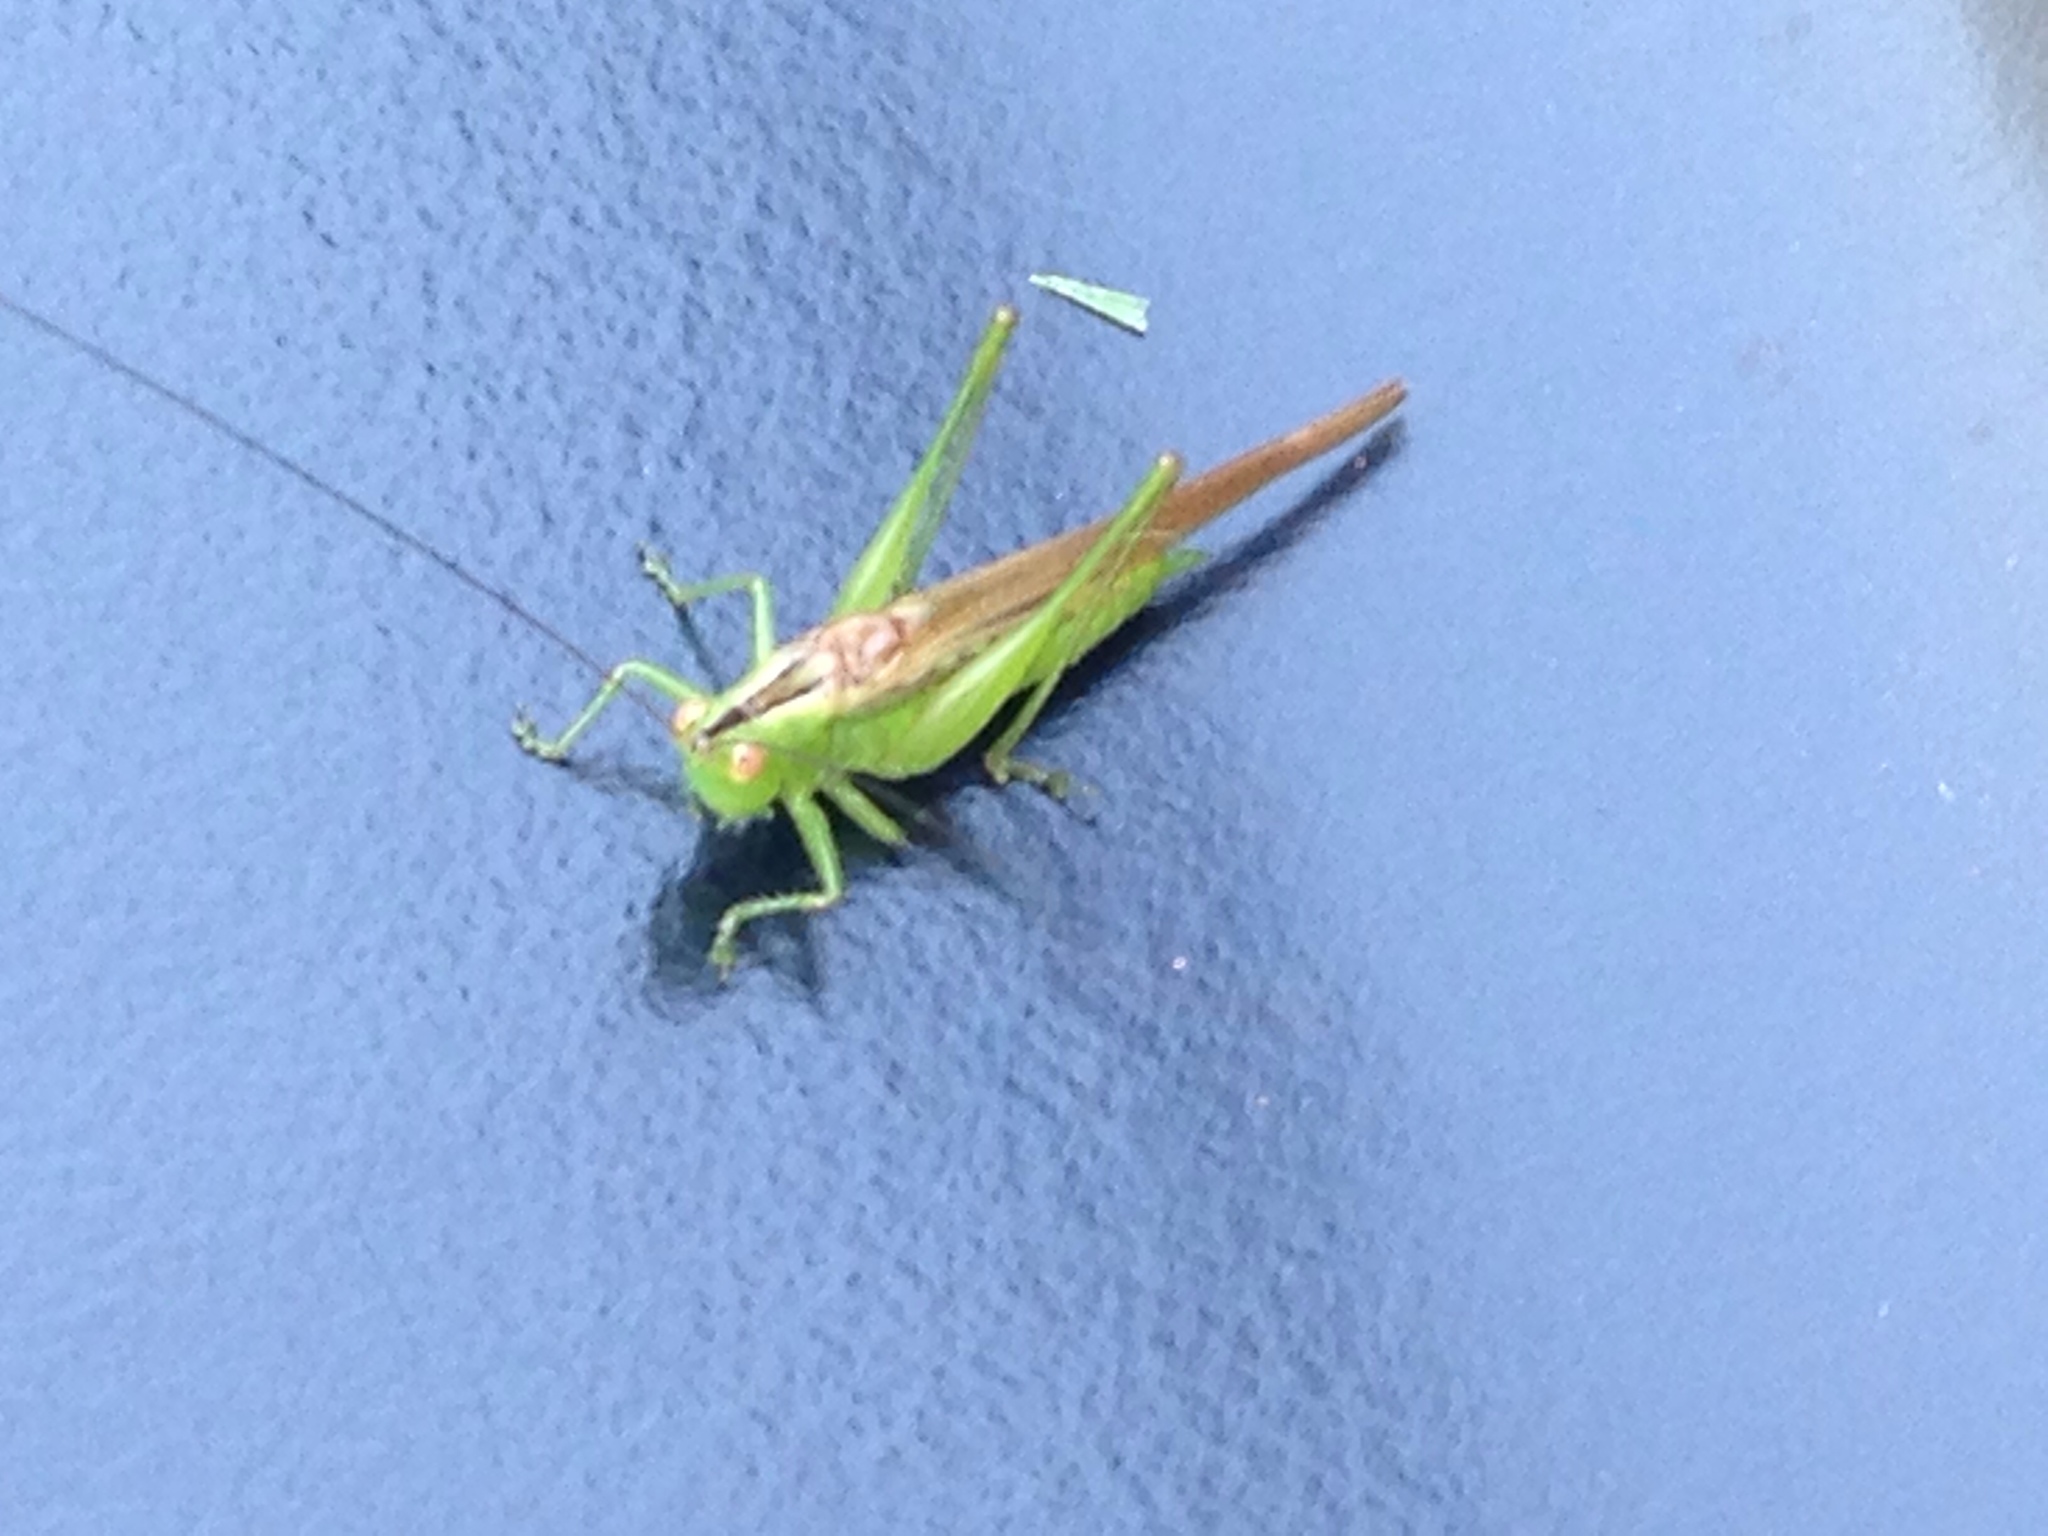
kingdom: Animalia
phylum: Arthropoda
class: Insecta
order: Orthoptera
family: Tettigoniidae
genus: Conocephalus
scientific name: Conocephalus fasciatus
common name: Slender meadow katydid
